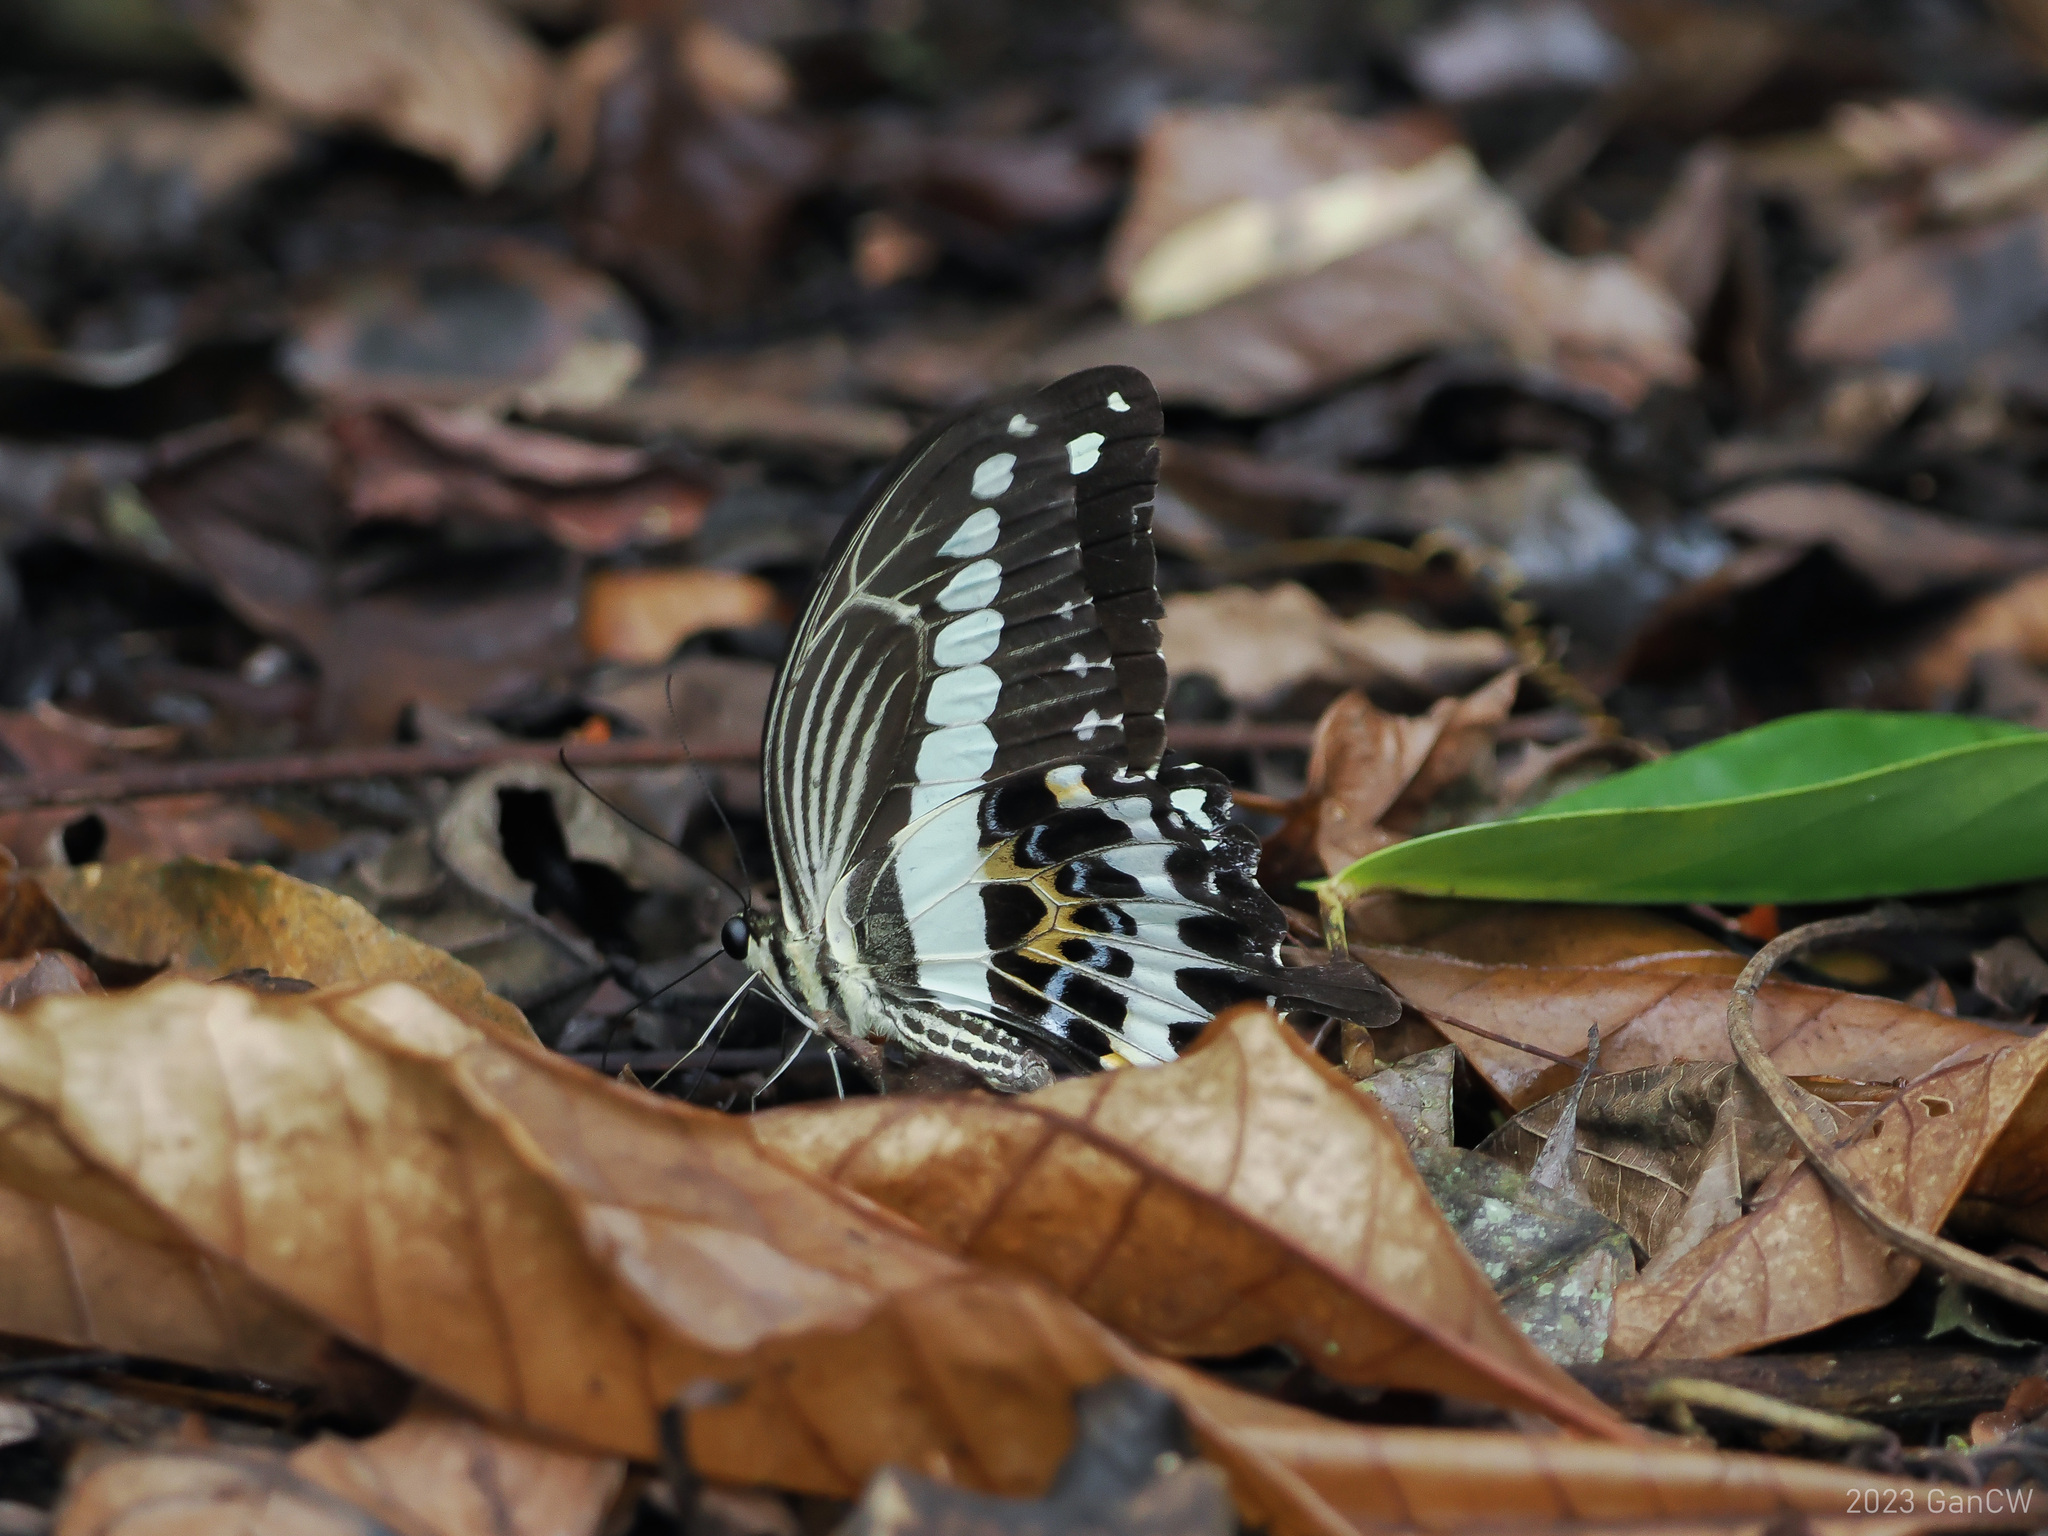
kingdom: Animalia
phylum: Arthropoda
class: Insecta
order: Lepidoptera
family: Papilionidae
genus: Papilio
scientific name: Papilio gigon
